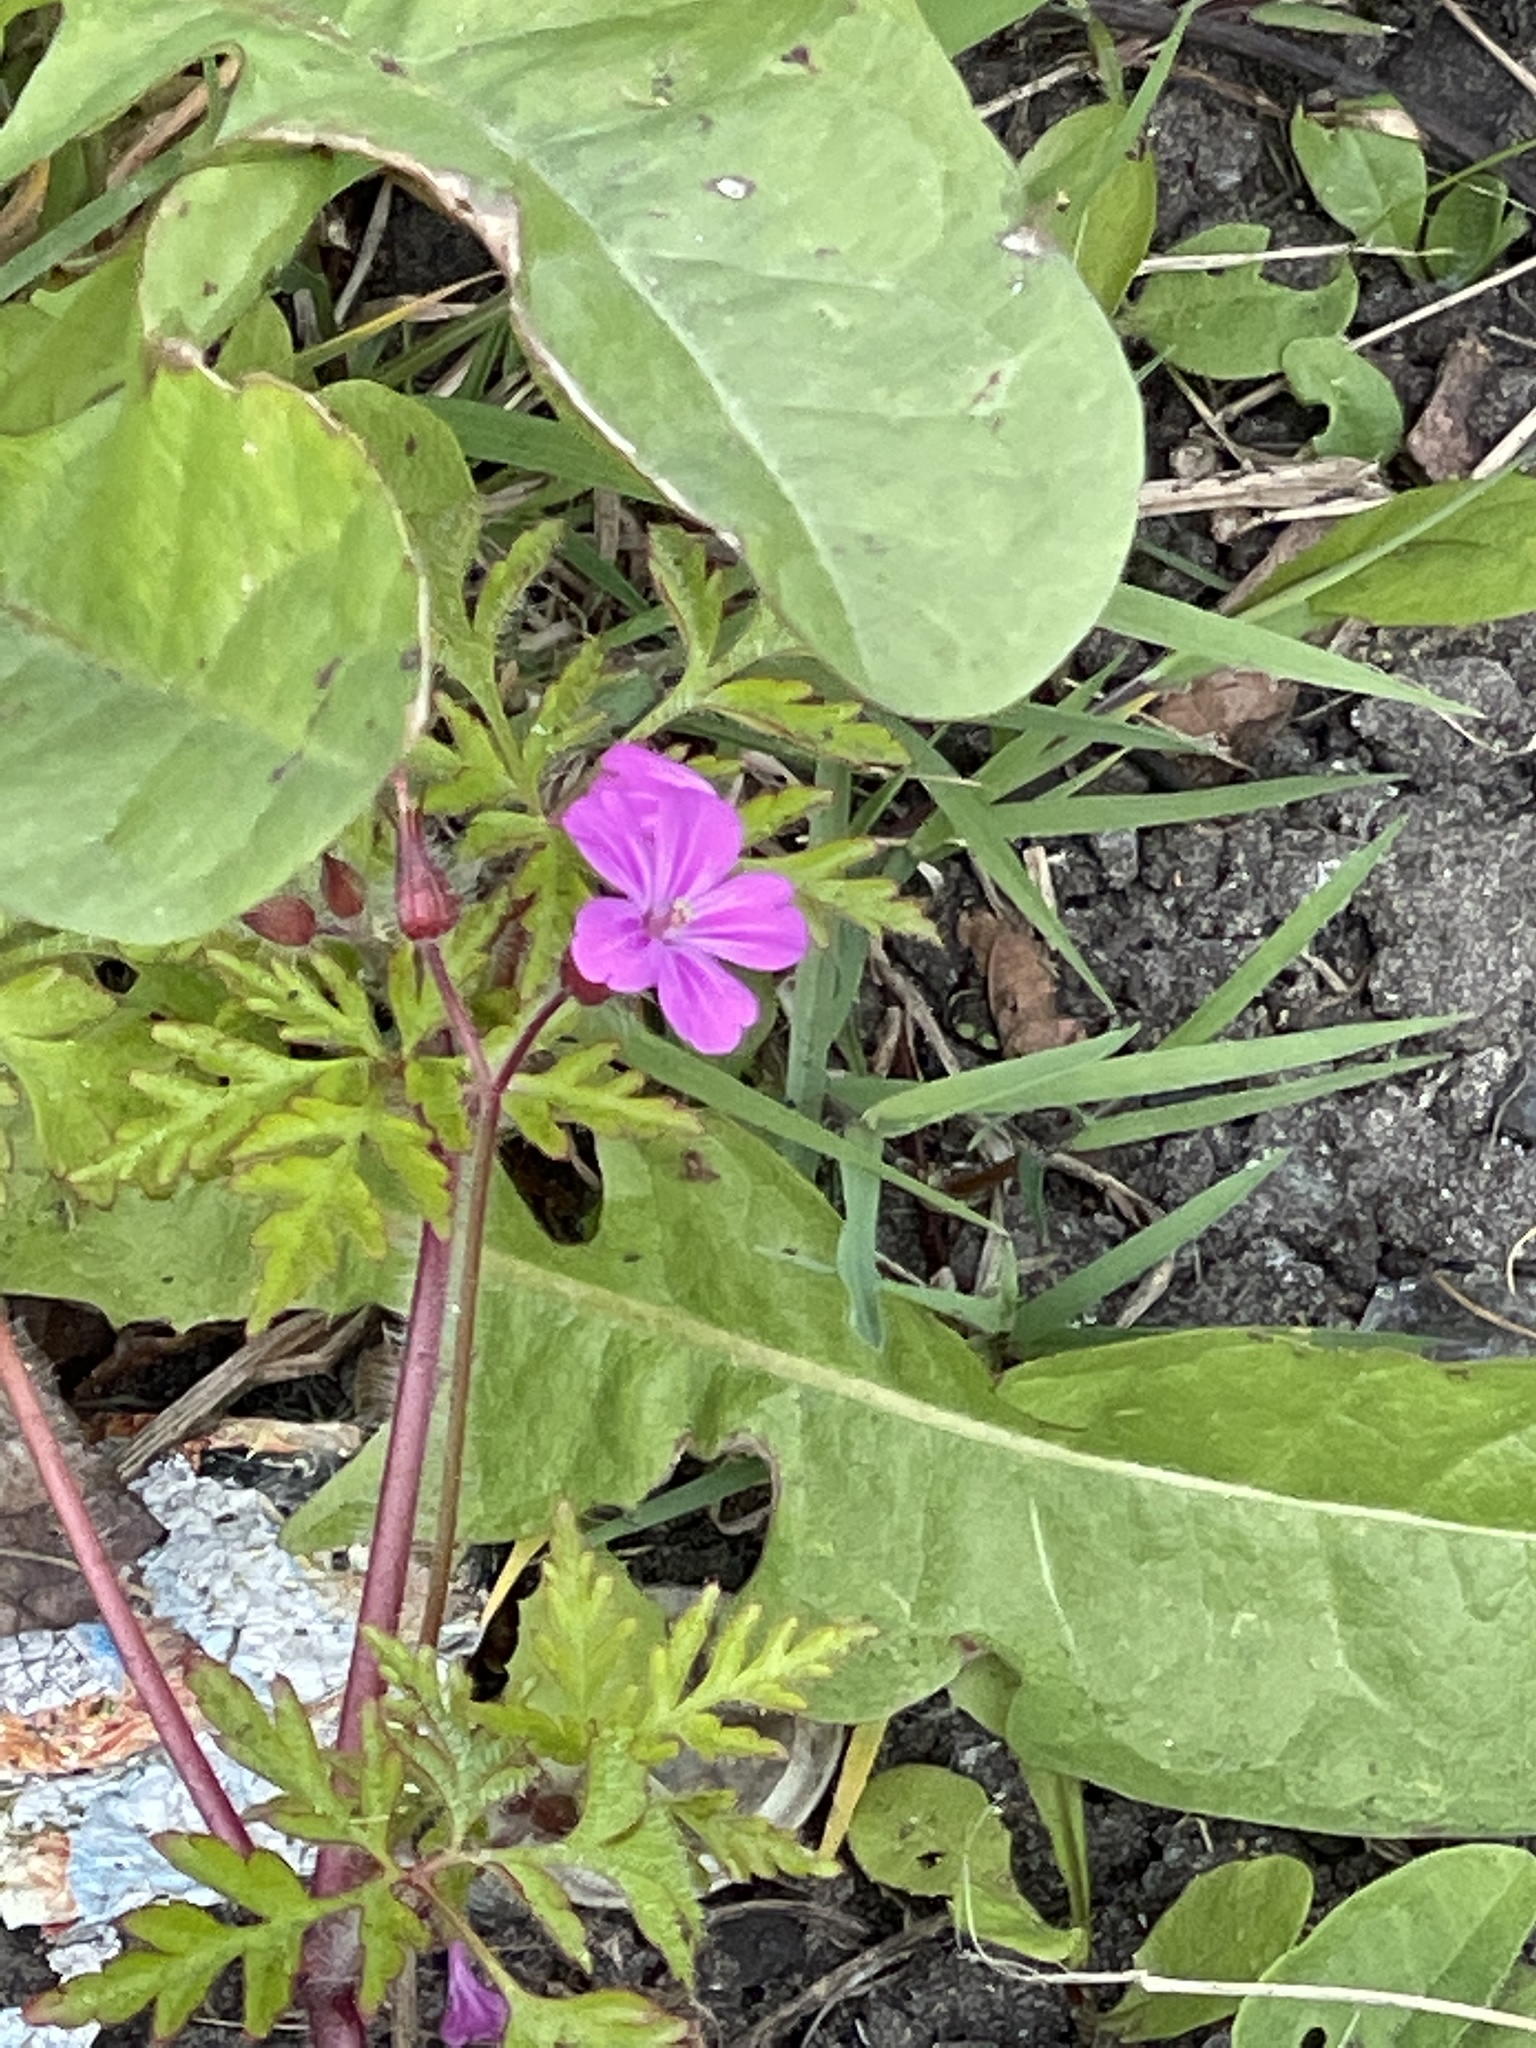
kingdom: Plantae
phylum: Tracheophyta
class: Magnoliopsida
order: Geraniales
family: Geraniaceae
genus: Geranium
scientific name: Geranium robertianum
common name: Herb-robert
